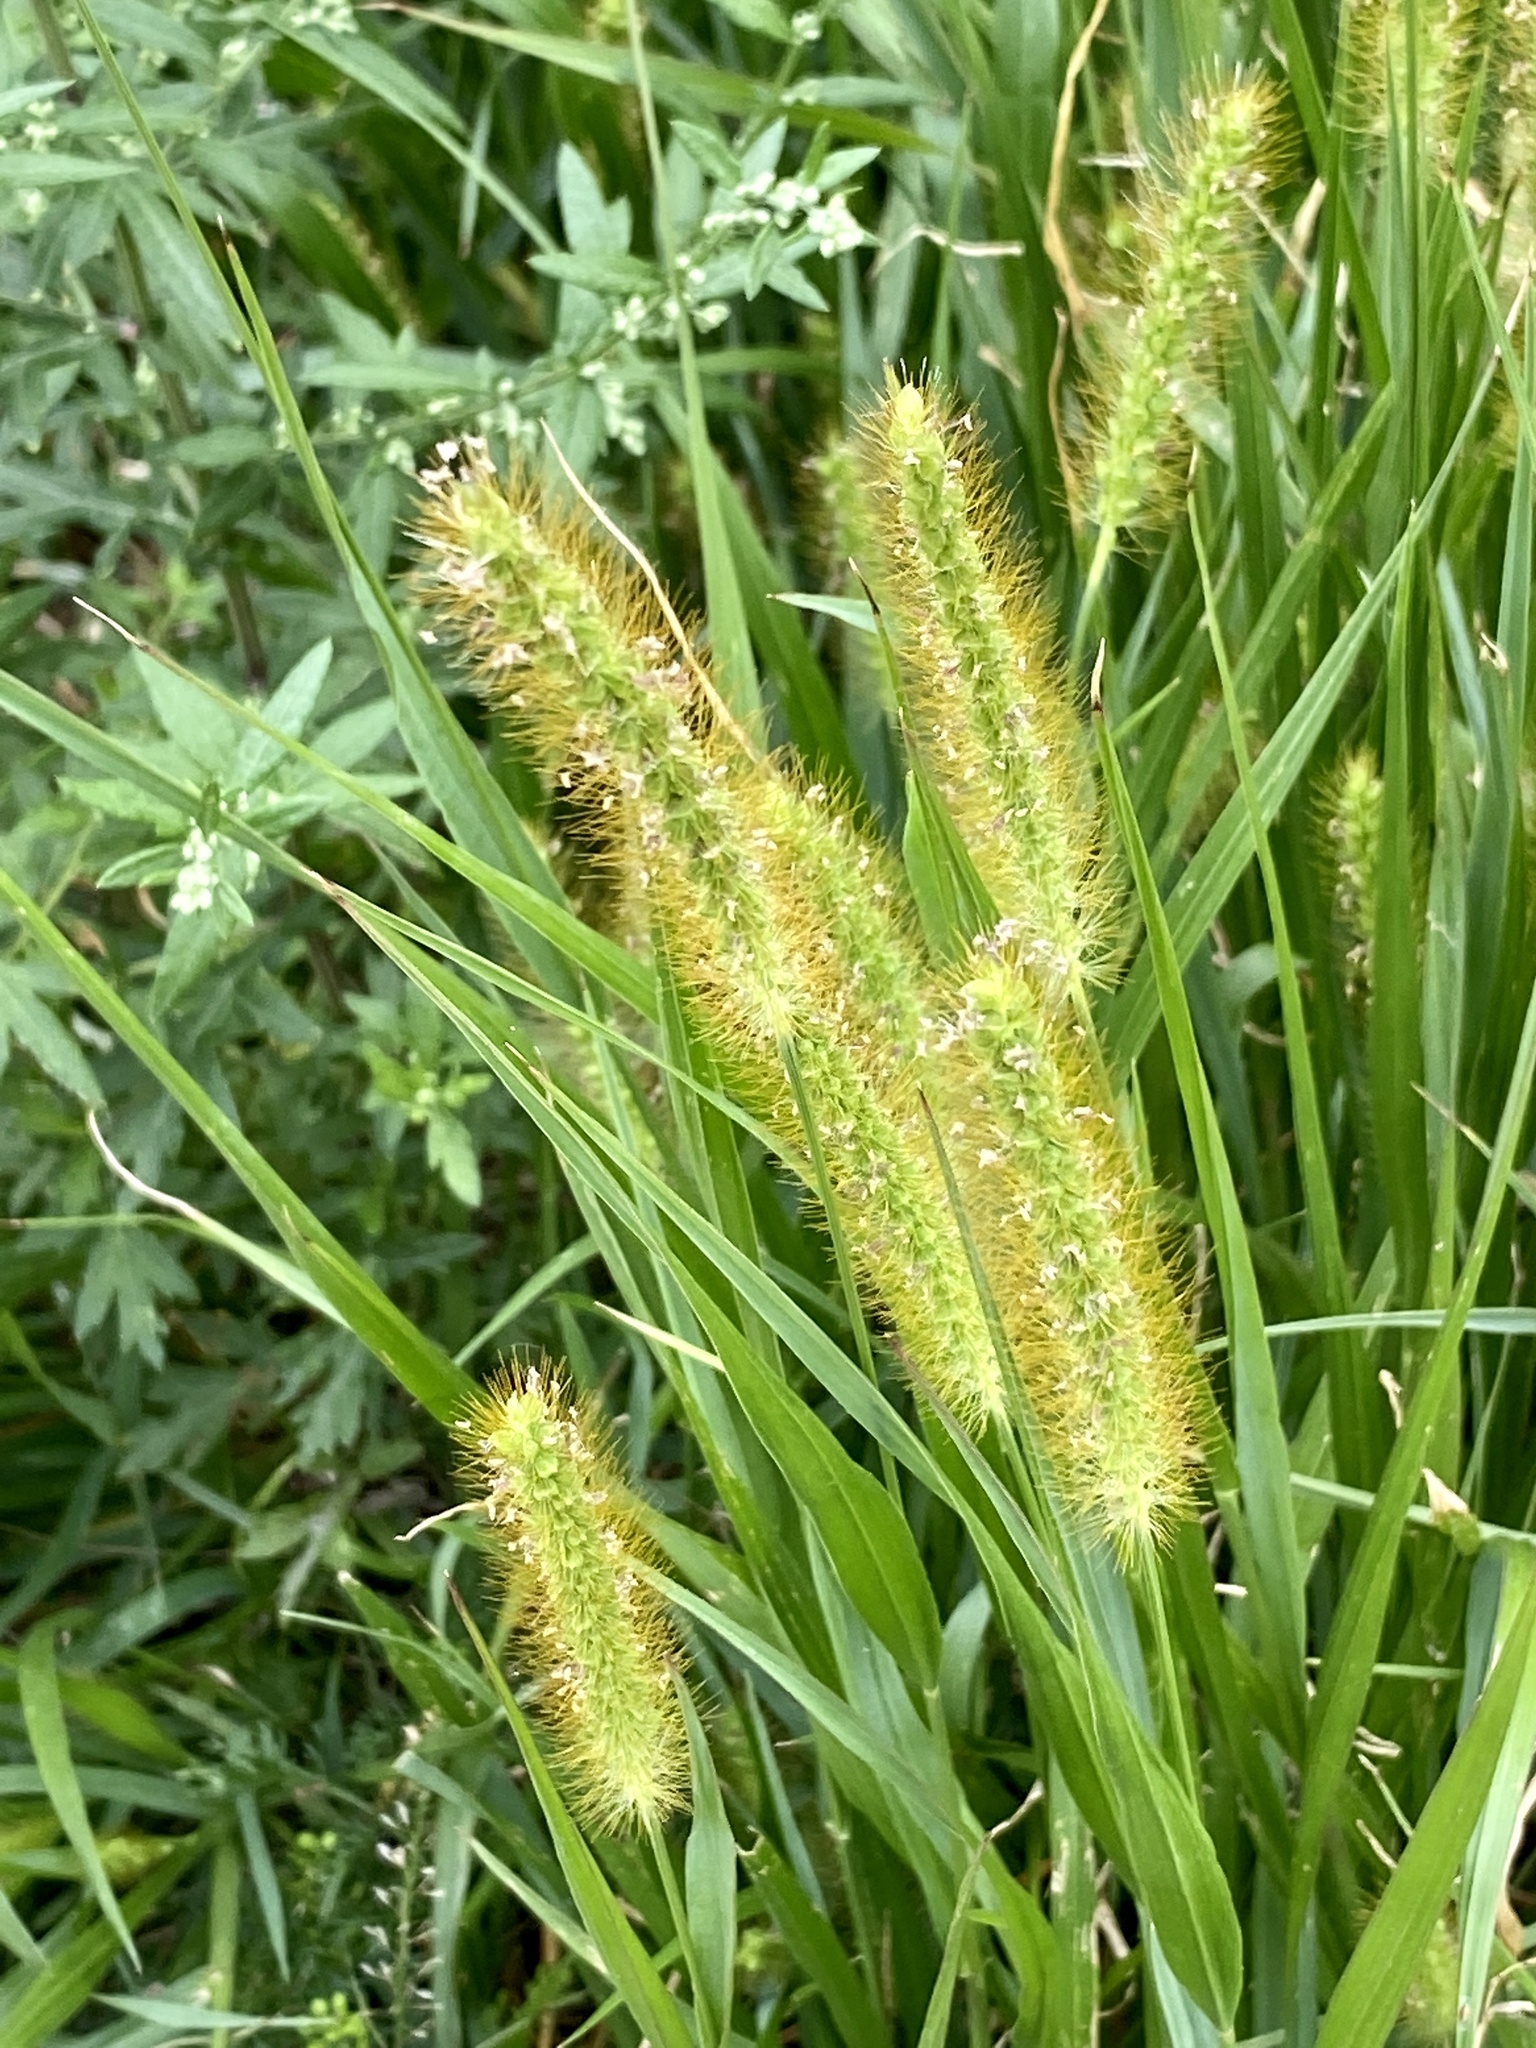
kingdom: Plantae
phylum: Tracheophyta
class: Liliopsida
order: Poales
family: Poaceae
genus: Setaria
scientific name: Setaria pumila
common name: Yellow bristle-grass
